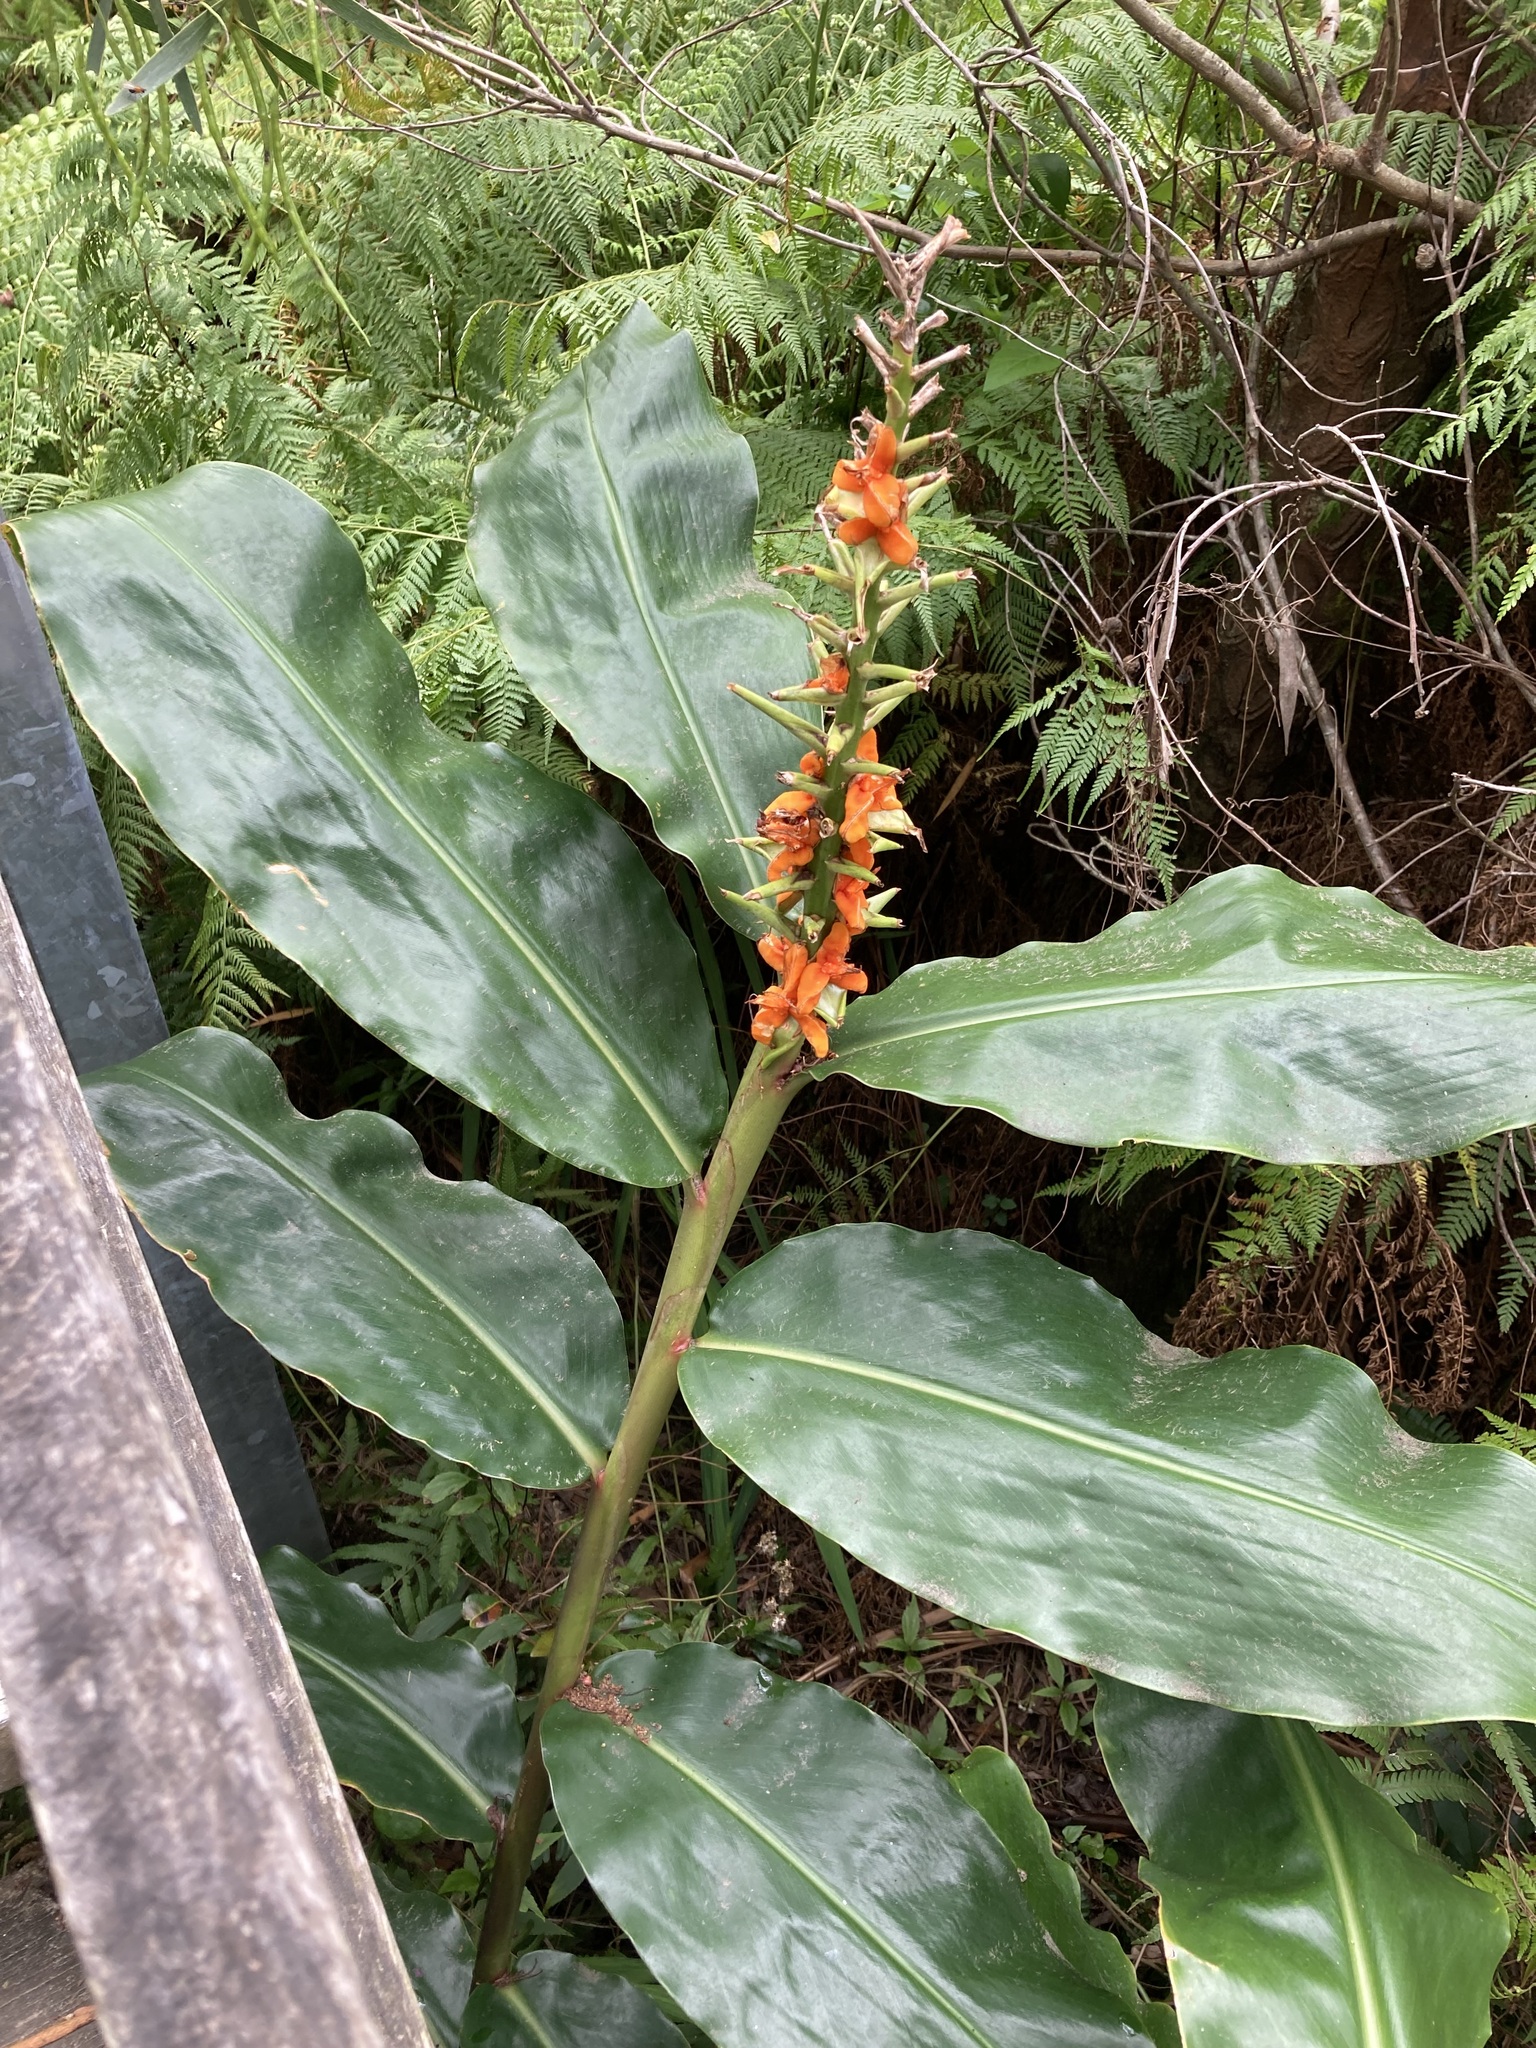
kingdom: Plantae
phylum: Tracheophyta
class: Liliopsida
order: Zingiberales
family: Zingiberaceae
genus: Hedychium
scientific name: Hedychium gardnerianum
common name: Himalayan ginger
